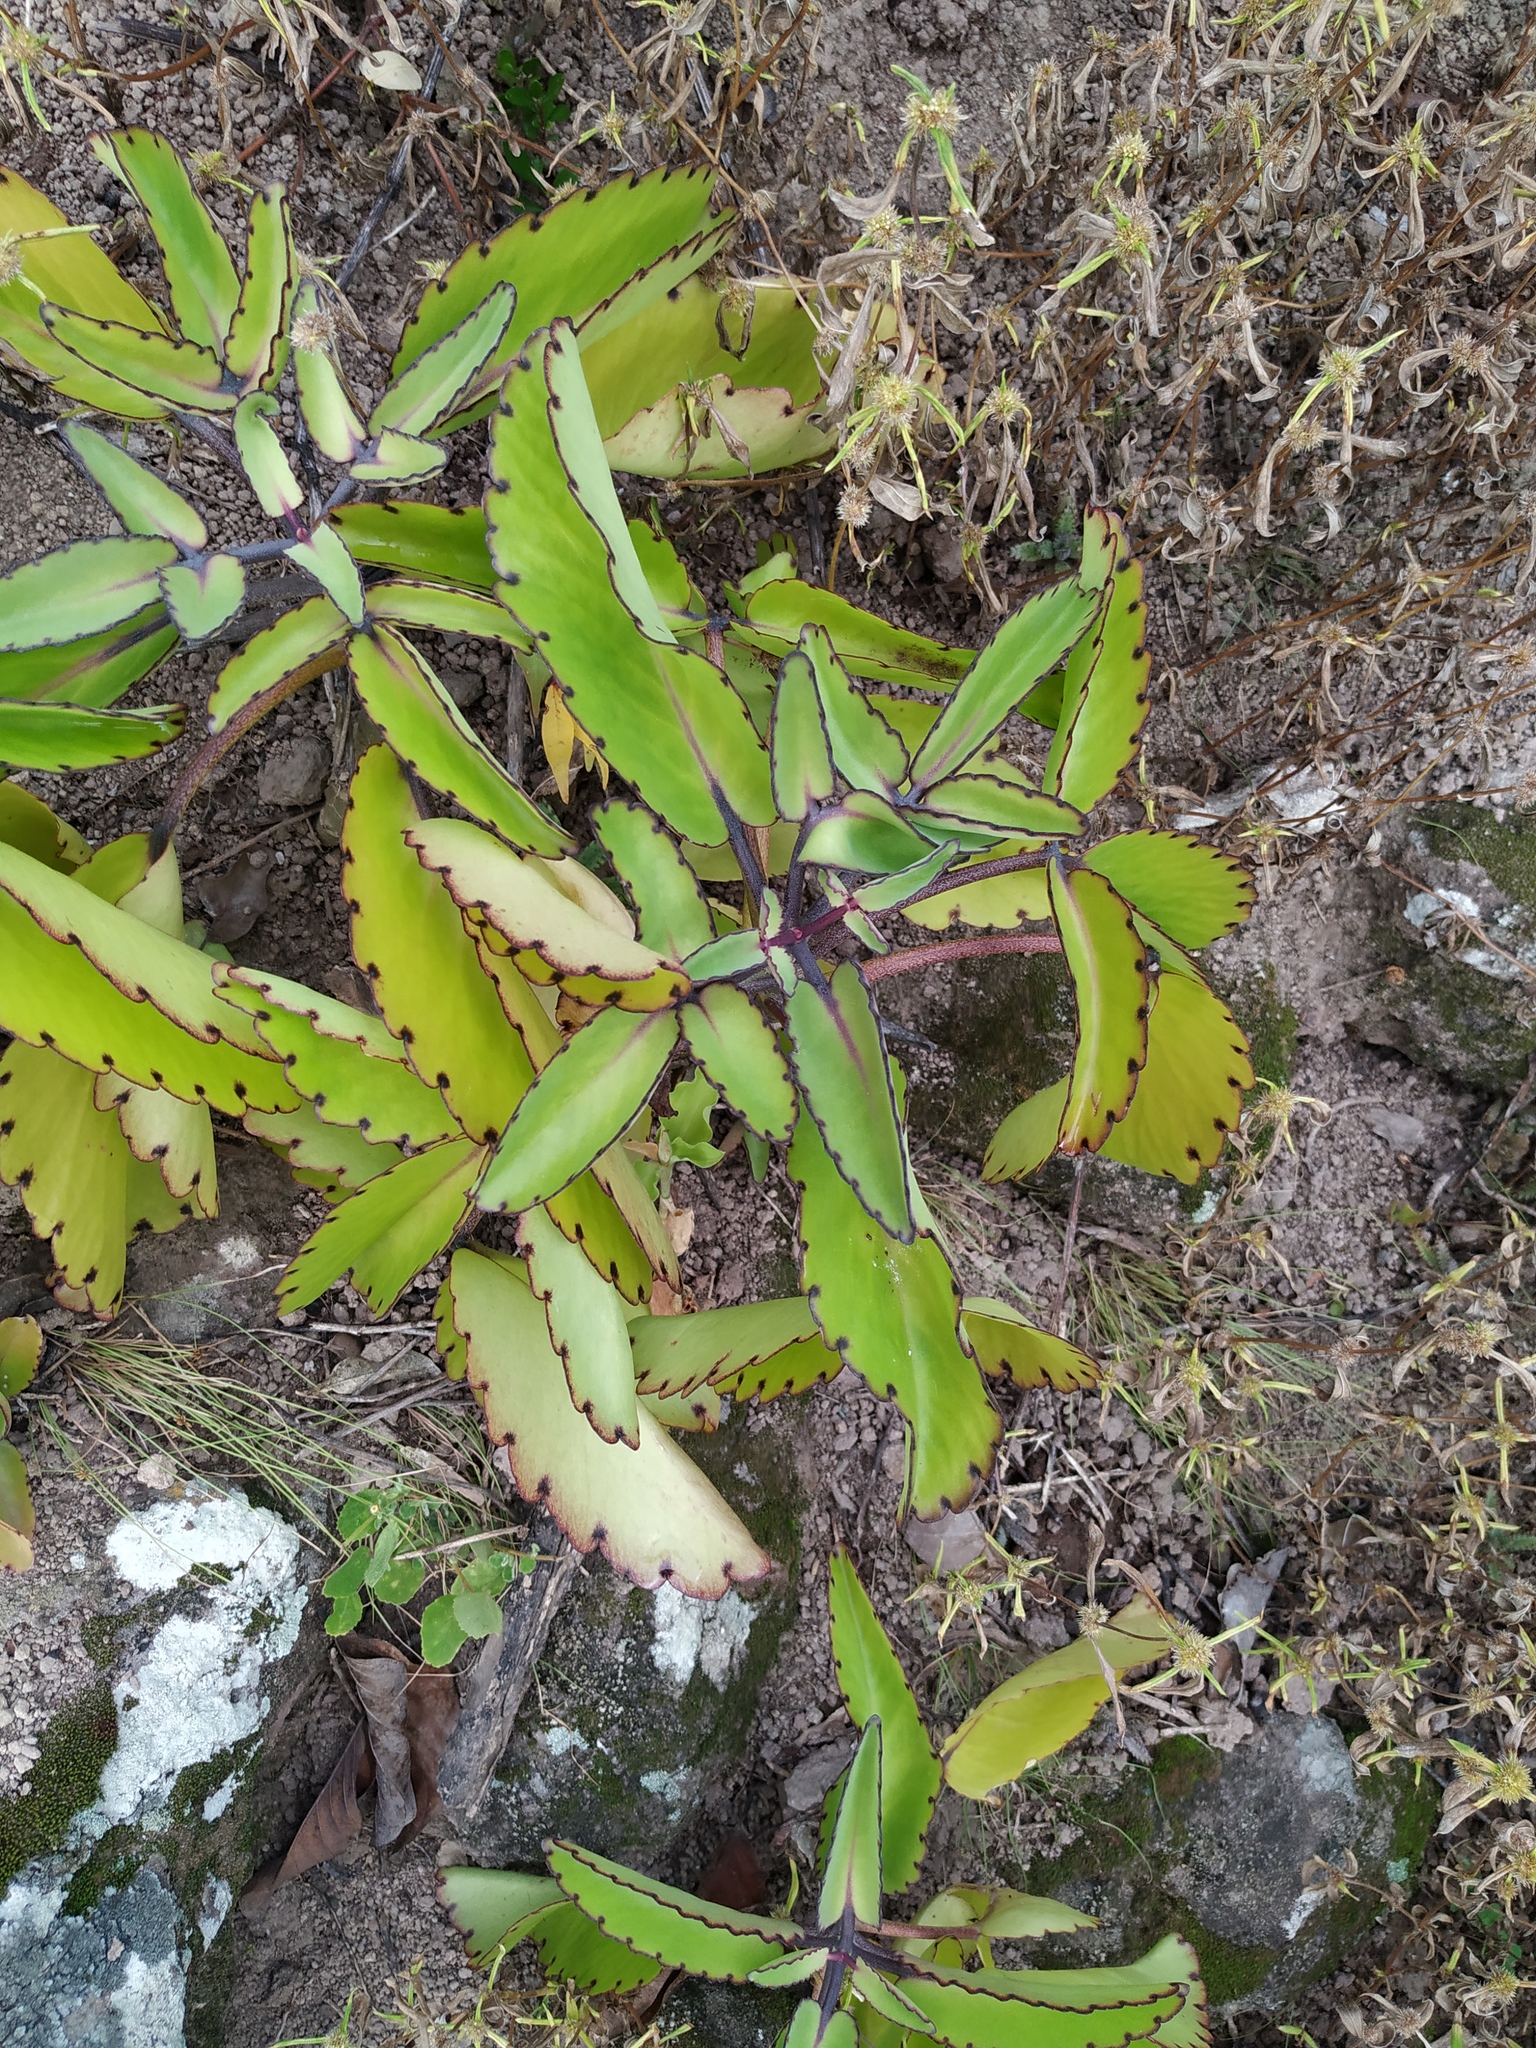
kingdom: Plantae
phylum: Tracheophyta
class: Magnoliopsida
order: Saxifragales
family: Crassulaceae
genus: Kalanchoe
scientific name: Kalanchoe pinnata
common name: Cathedral bells
